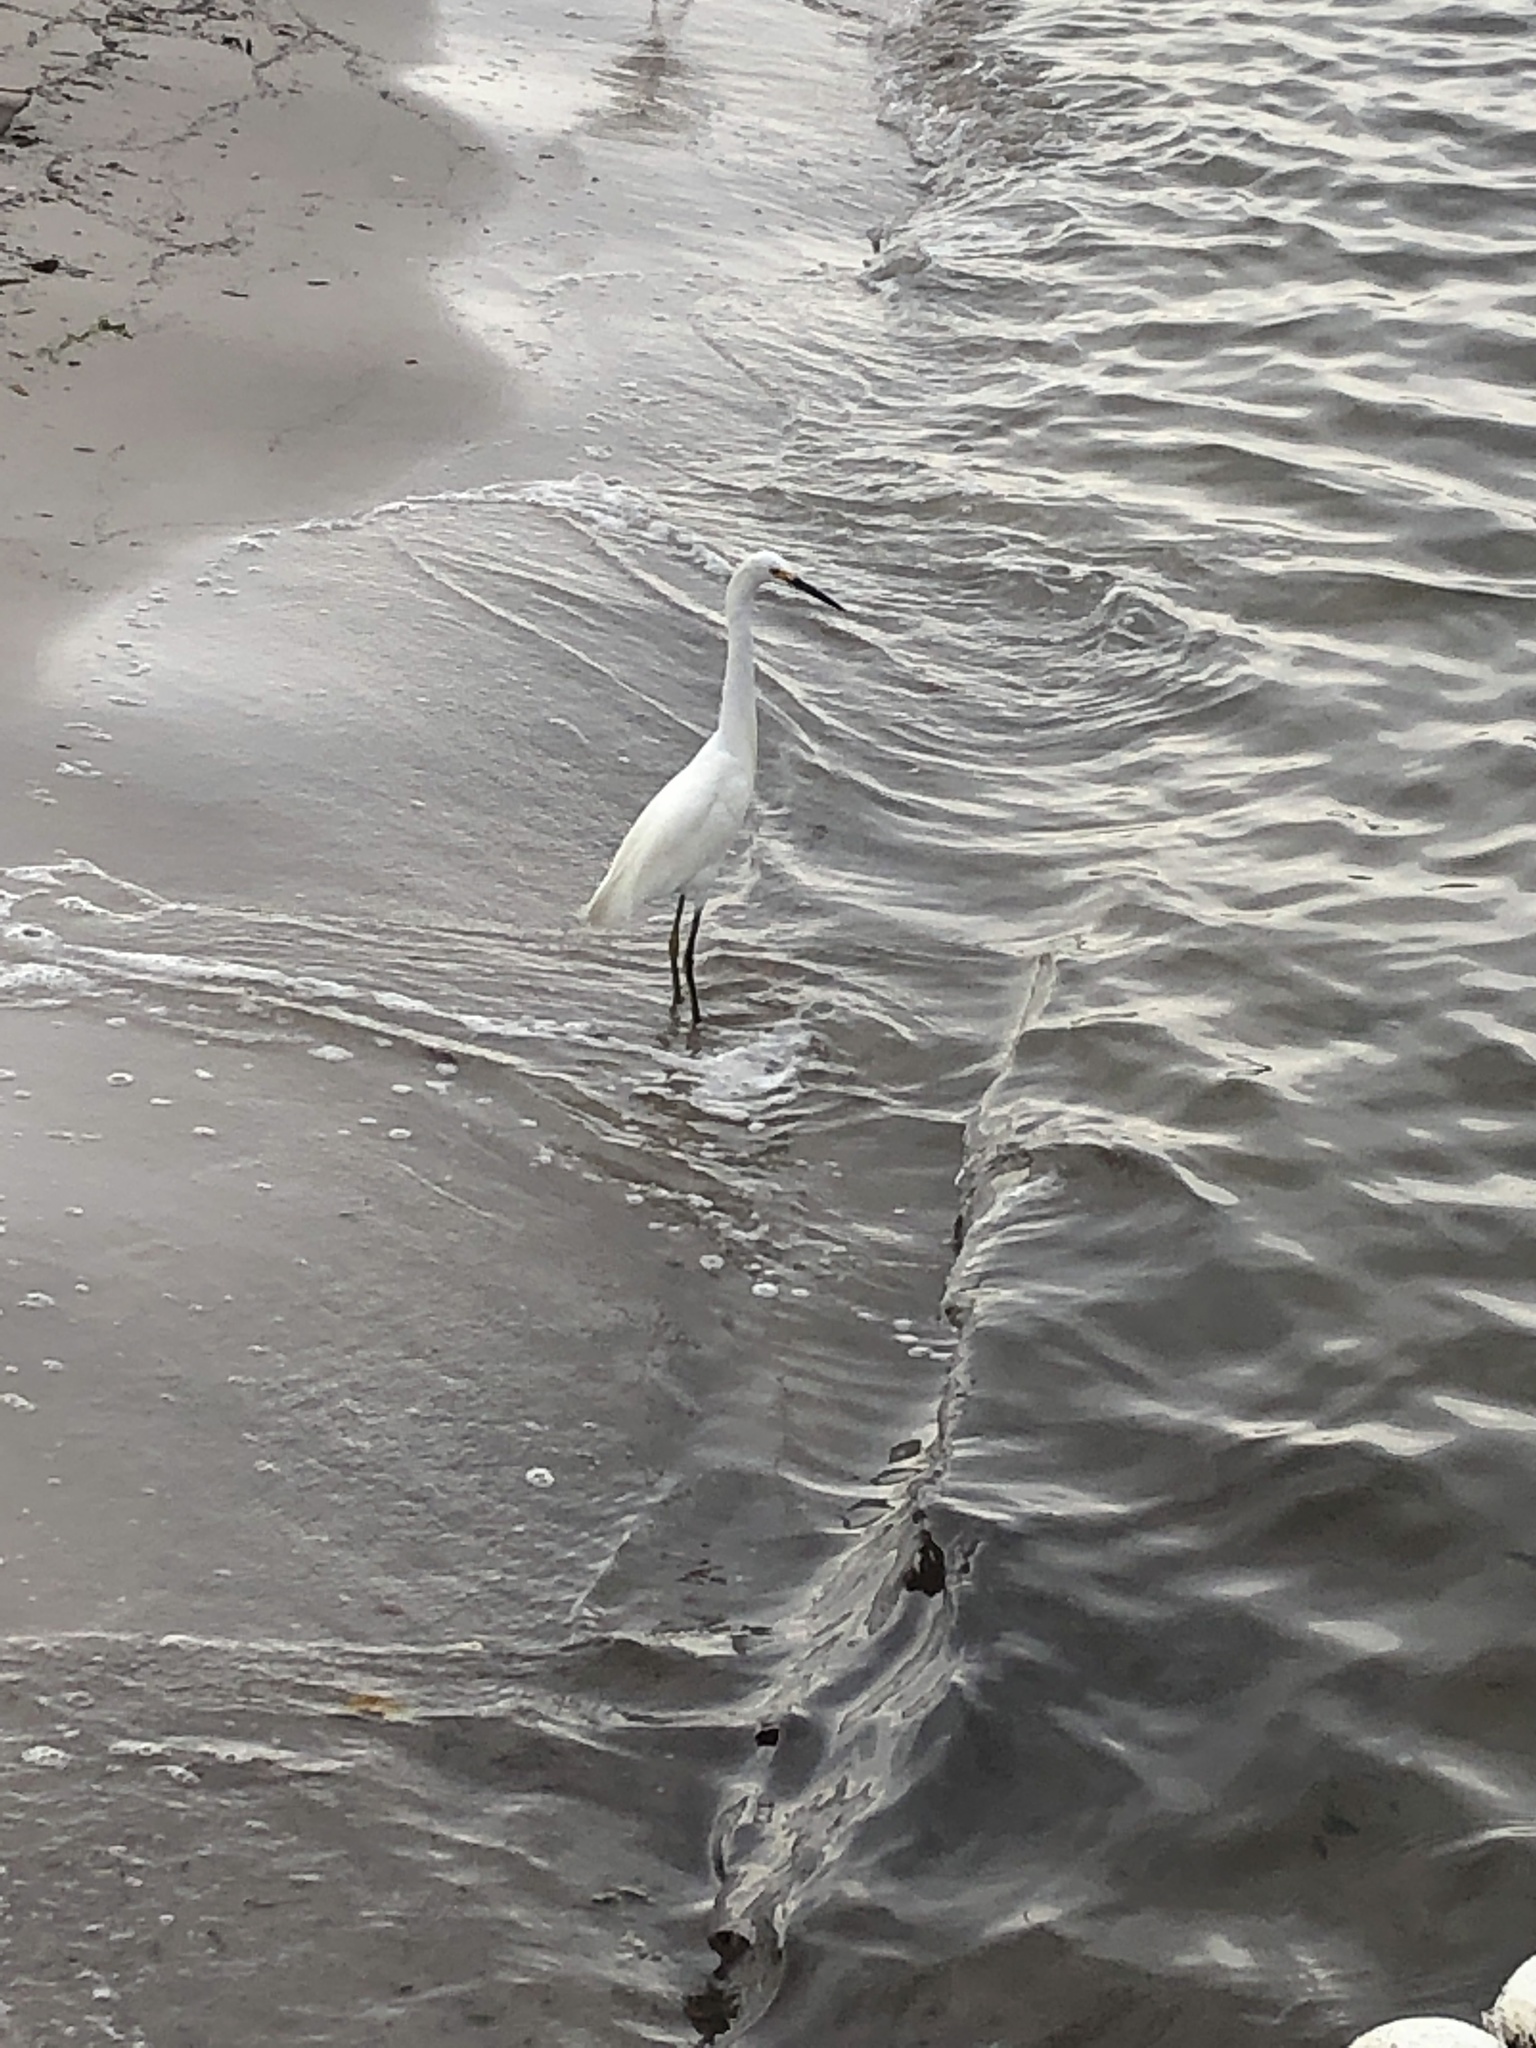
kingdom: Animalia
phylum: Chordata
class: Aves
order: Pelecaniformes
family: Ardeidae
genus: Egretta
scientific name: Egretta thula
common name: Snowy egret
